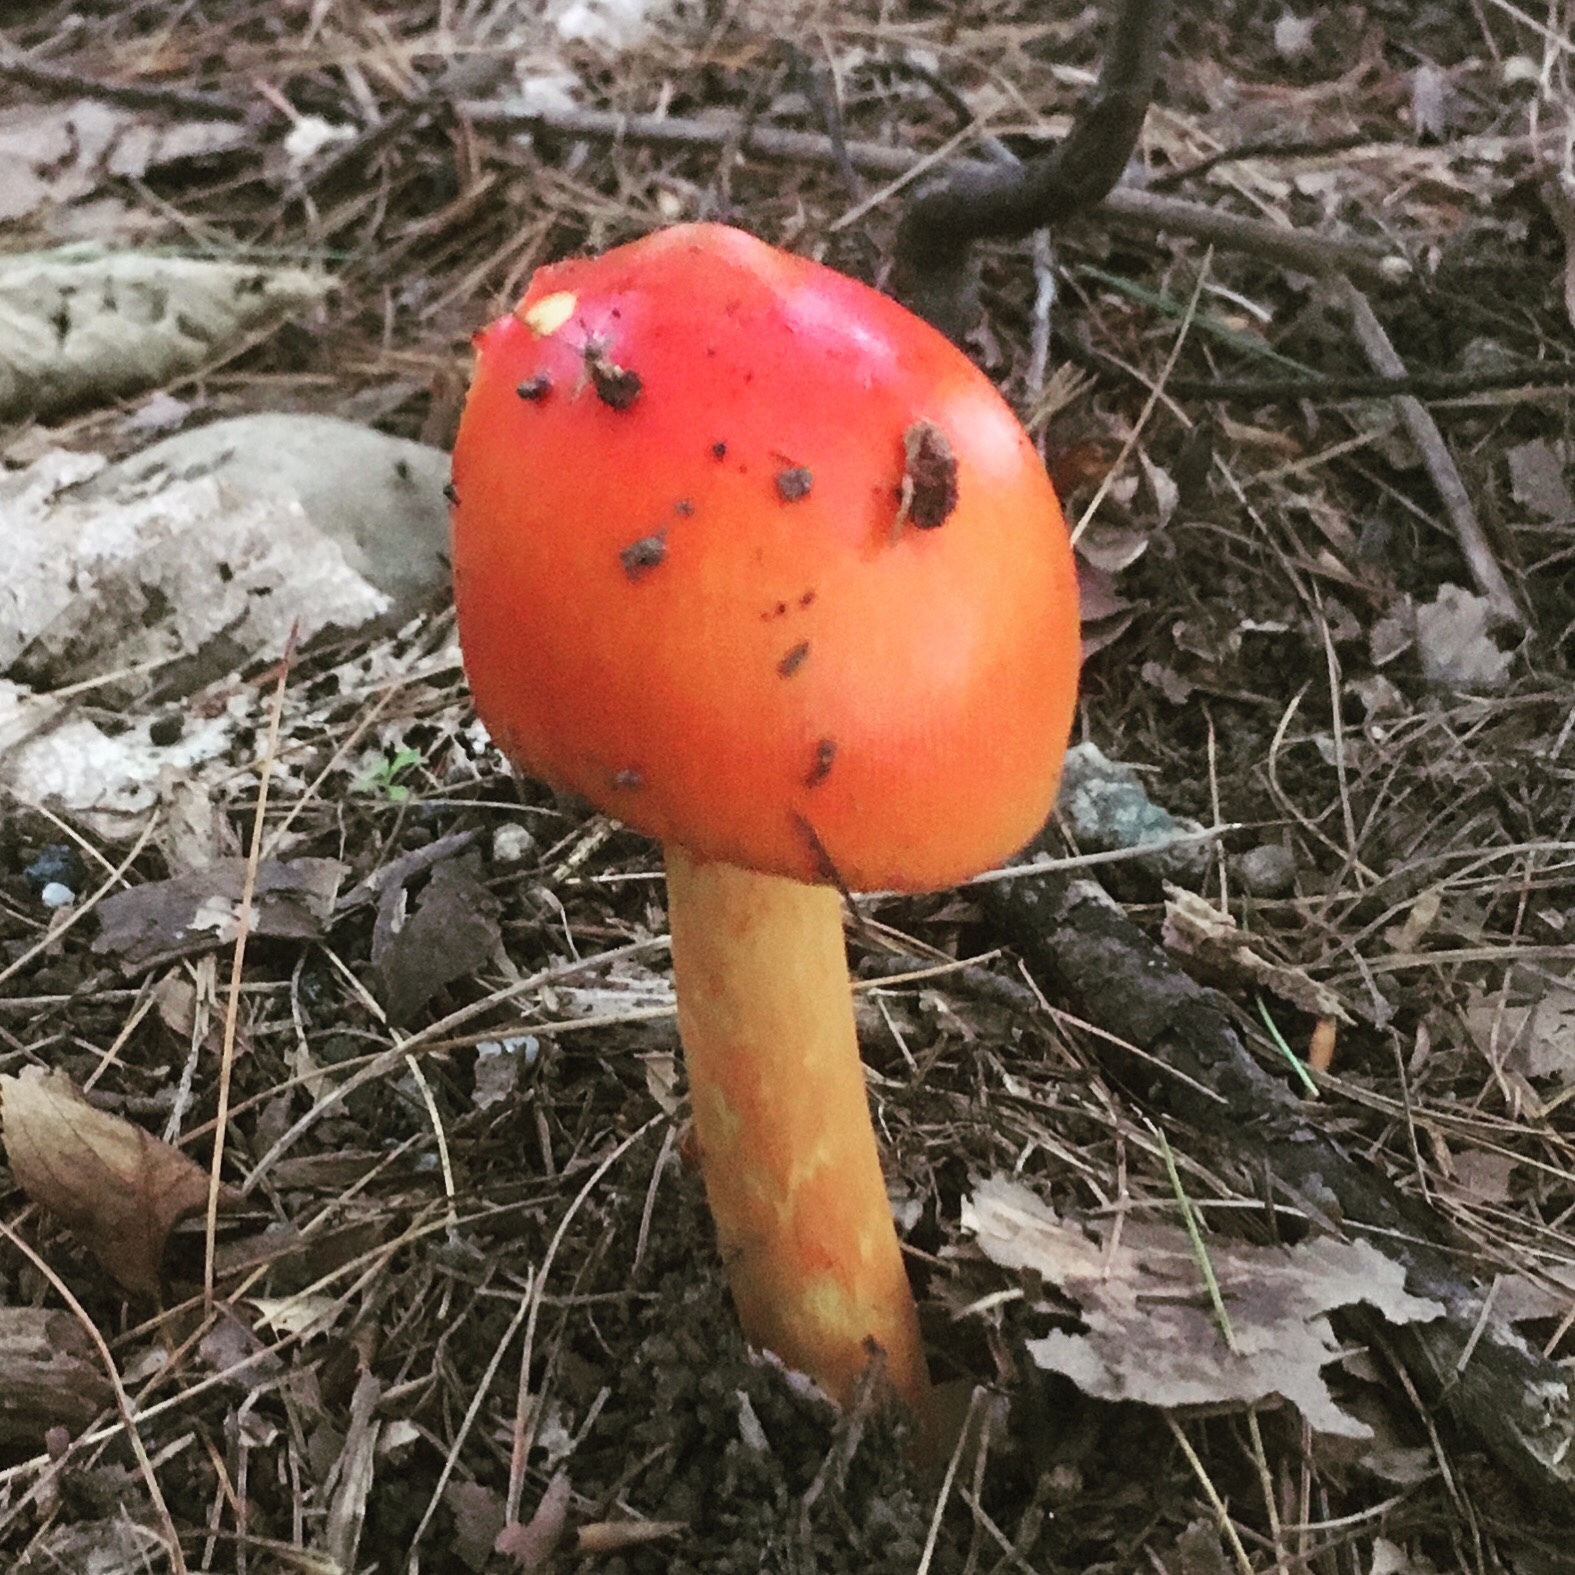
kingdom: Fungi
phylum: Basidiomycota
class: Agaricomycetes
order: Agaricales
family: Amanitaceae
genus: Amanita
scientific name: Amanita jacksonii
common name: Jackson's slender caesar
